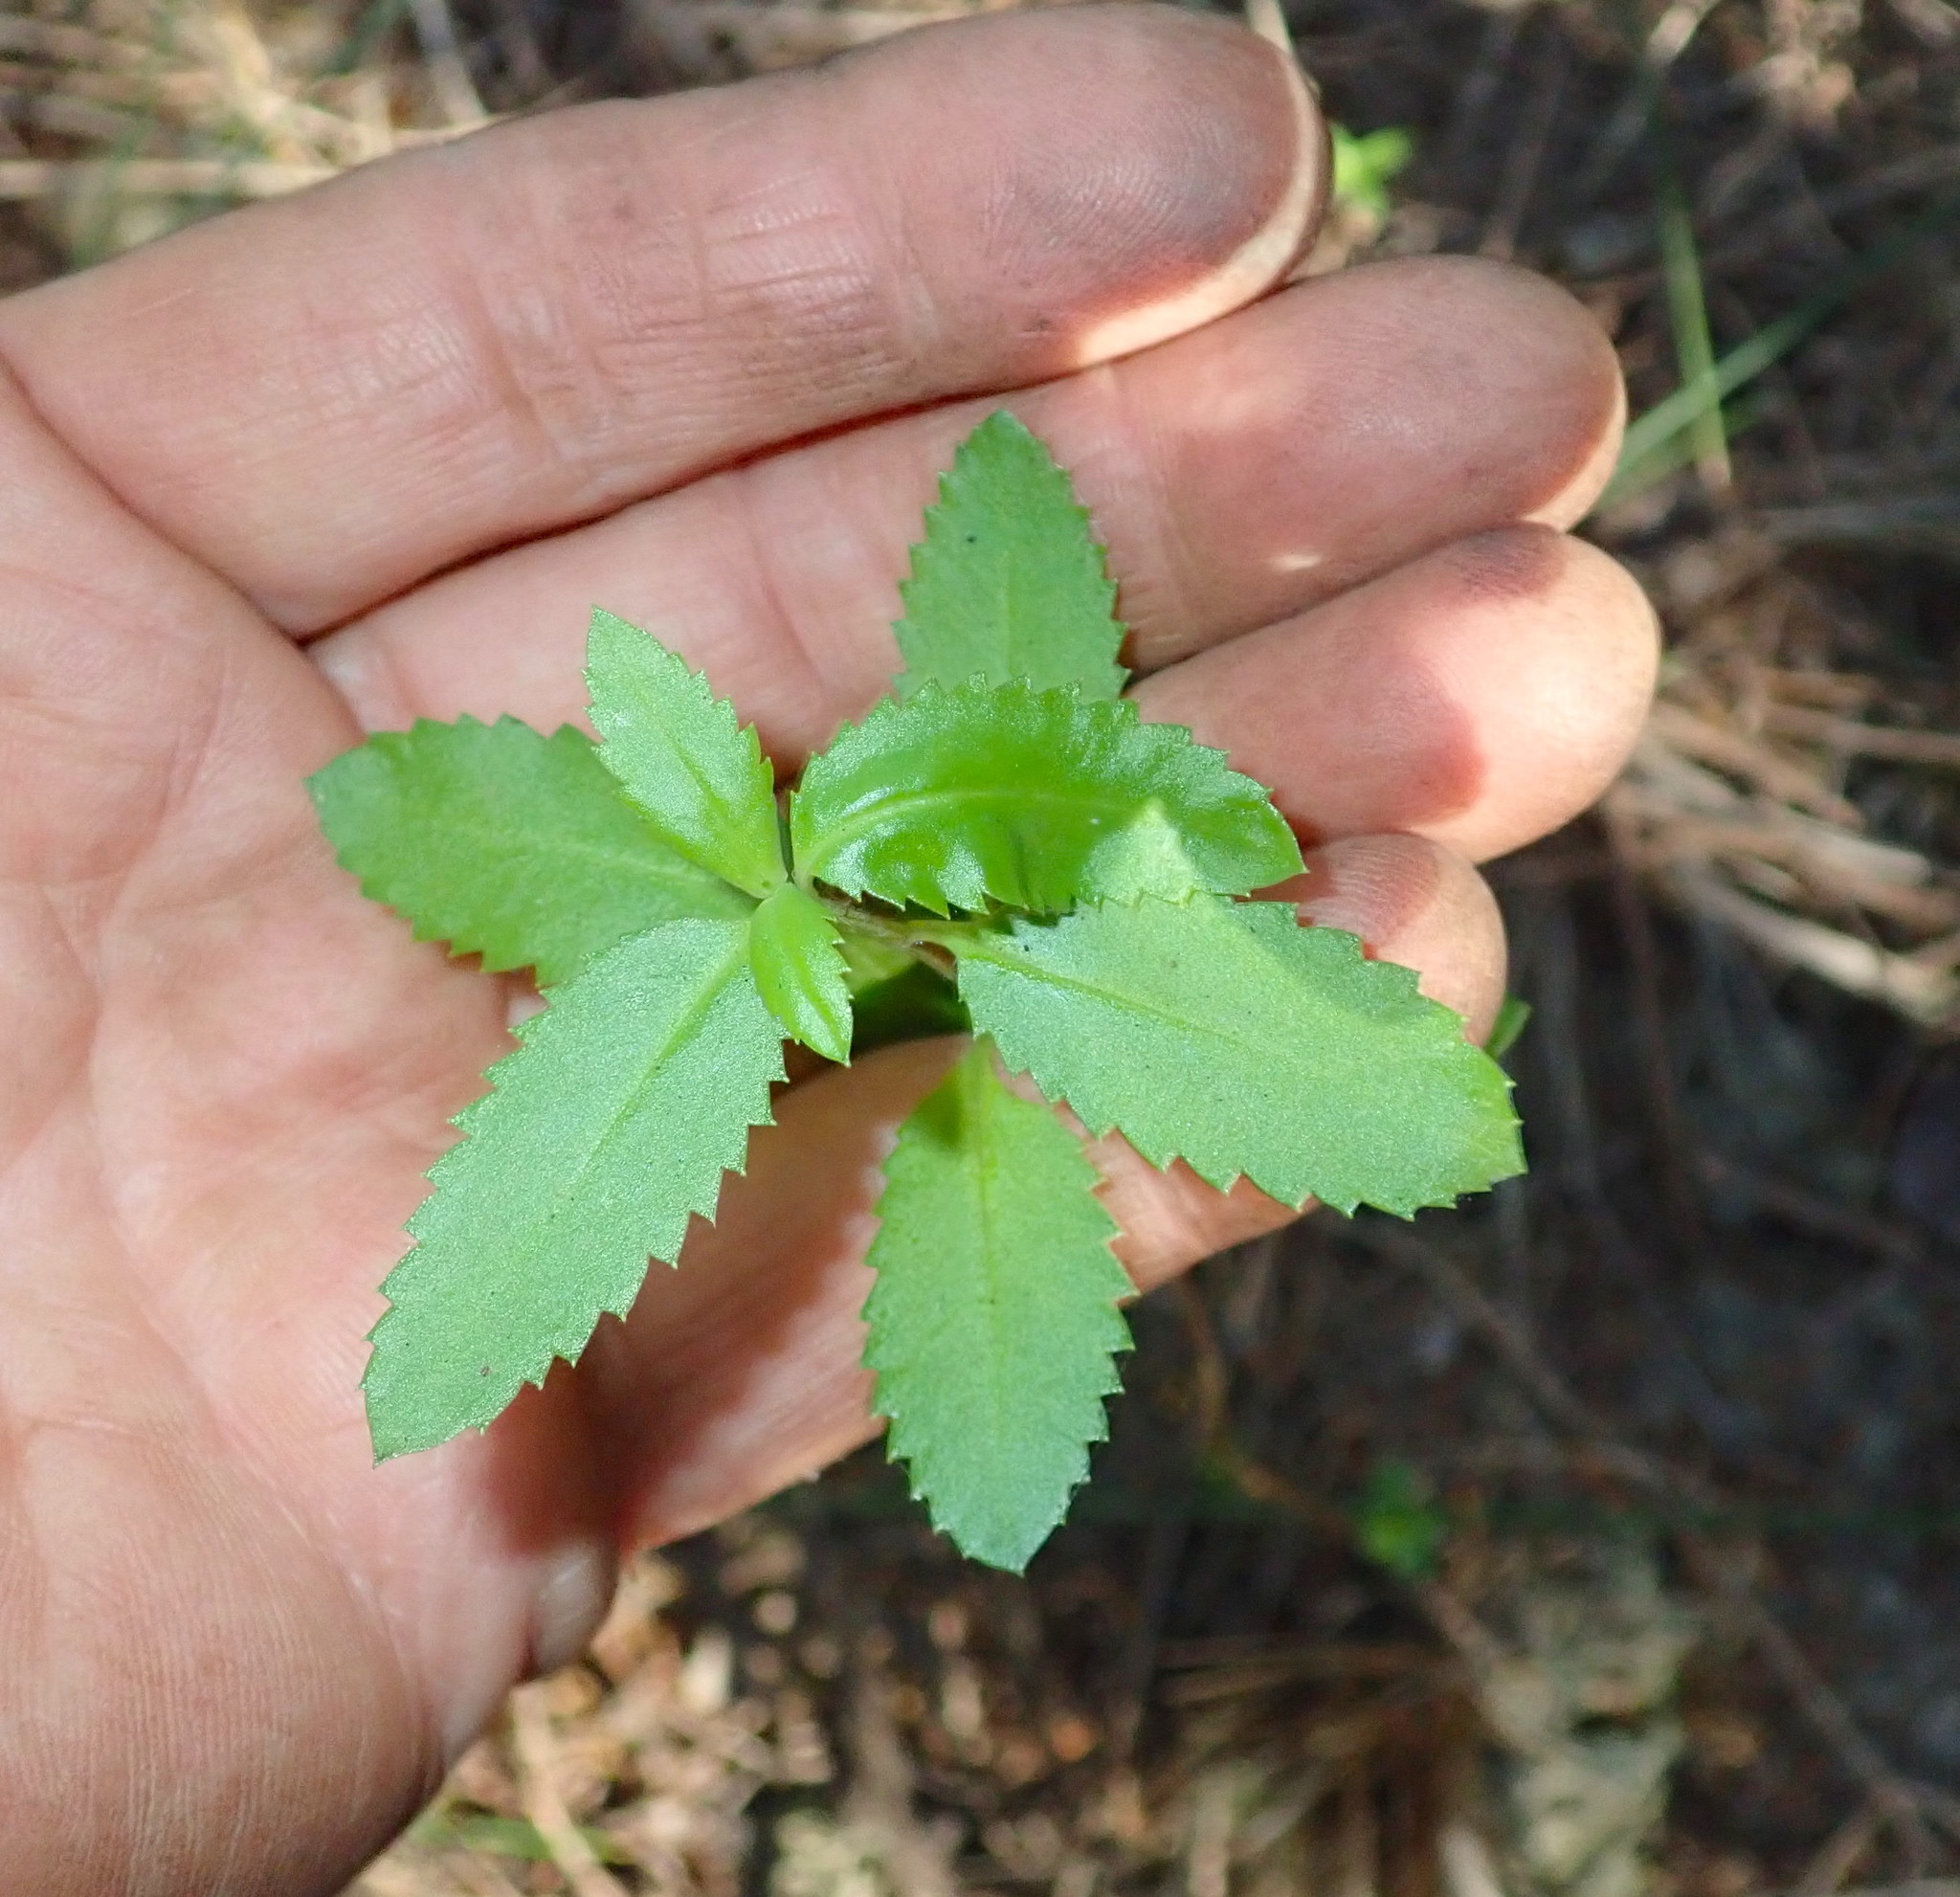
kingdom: Plantae
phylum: Tracheophyta
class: Magnoliopsida
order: Saxifragales
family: Haloragaceae
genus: Haloragis
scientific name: Haloragis erecta
